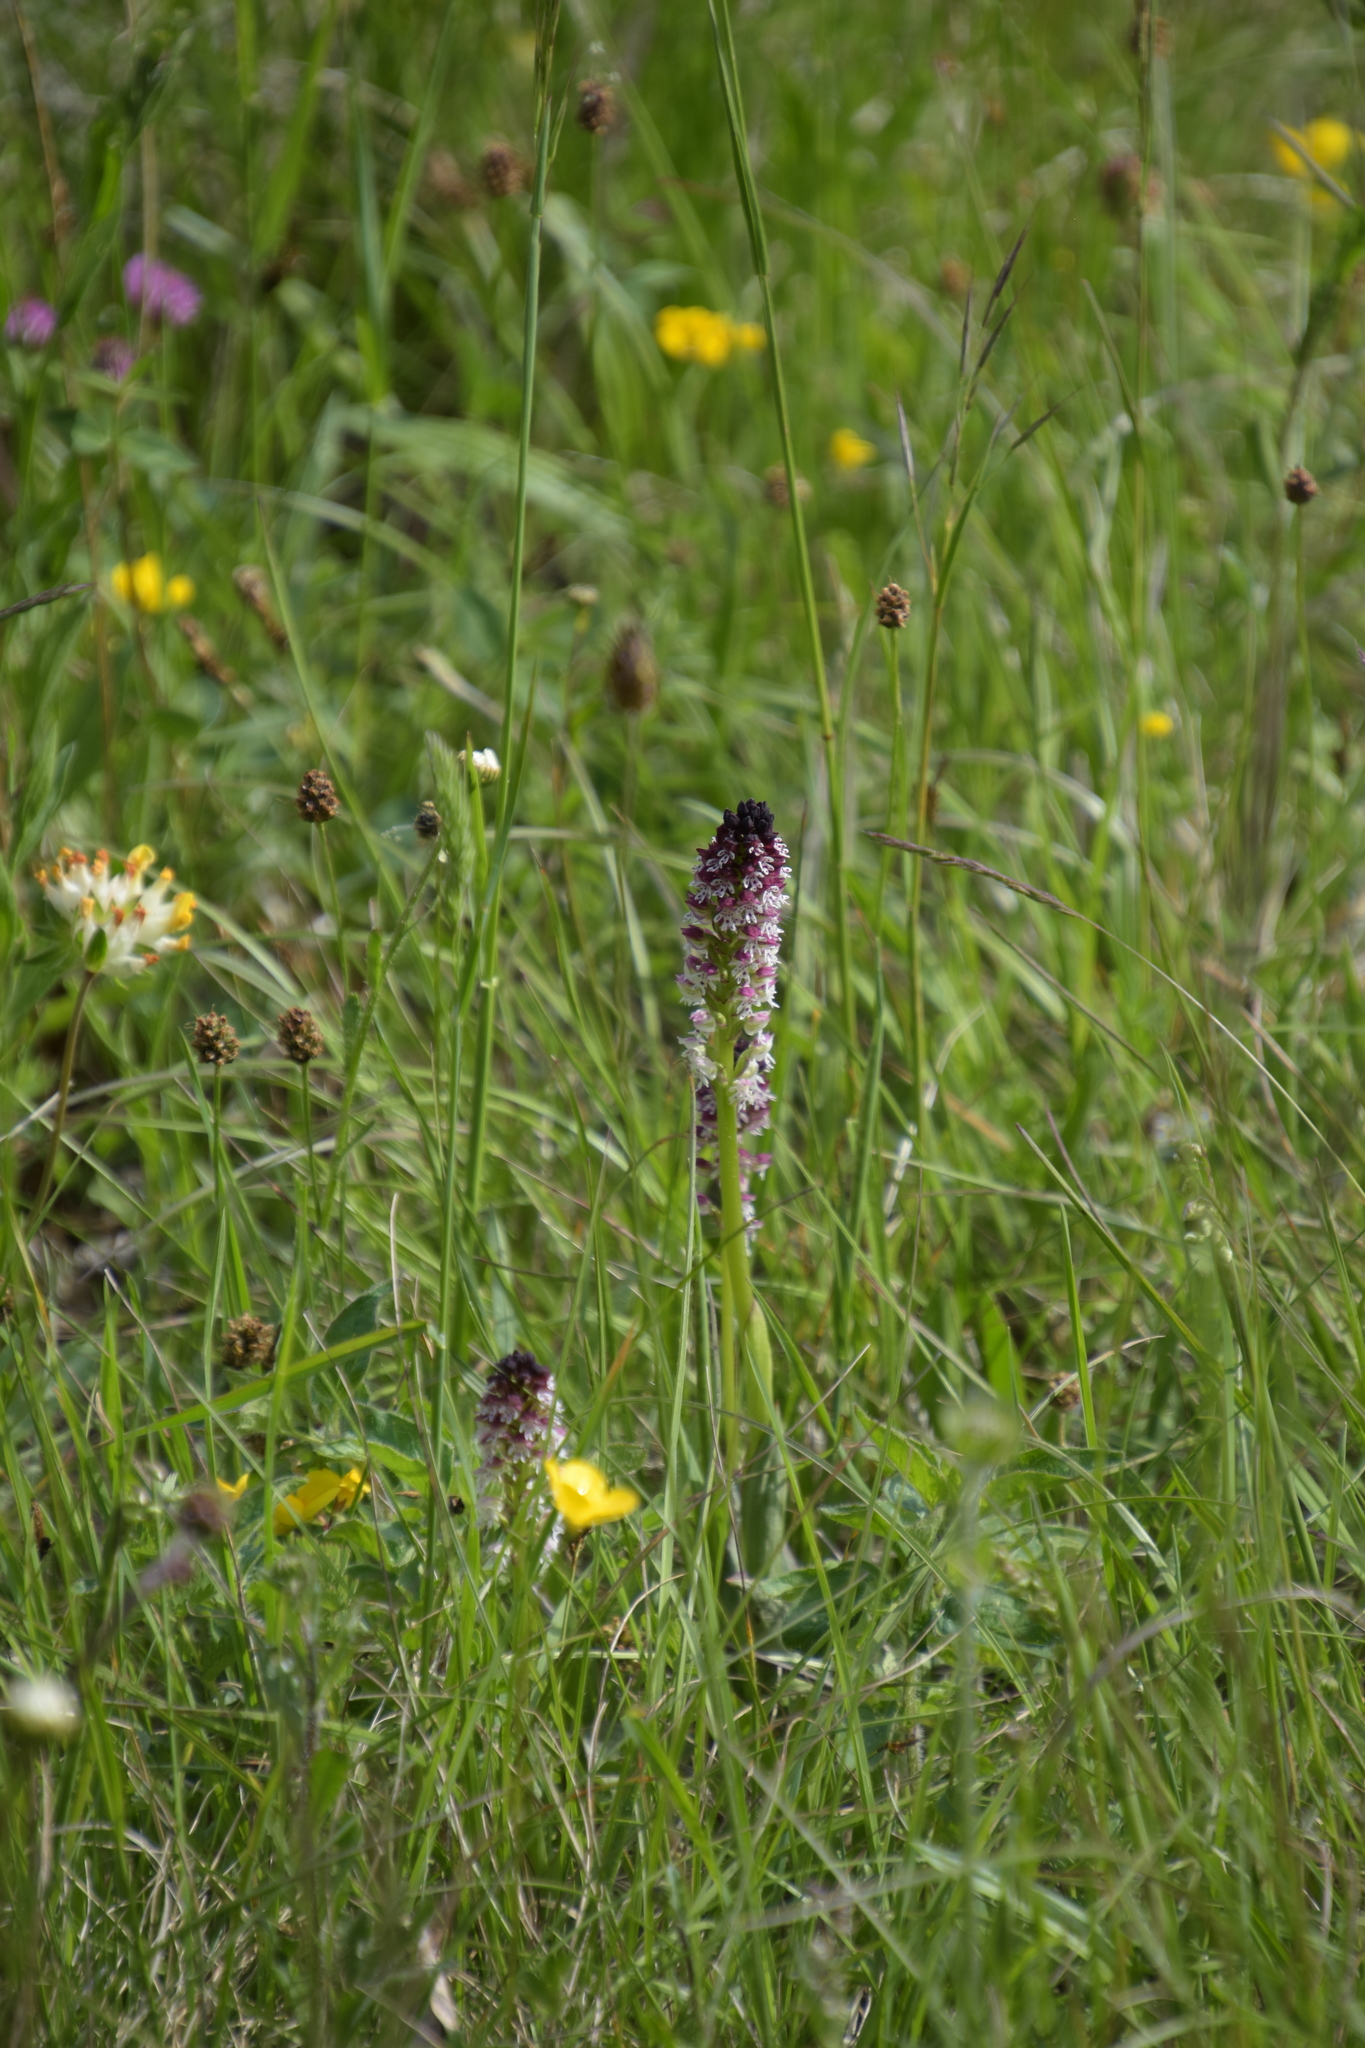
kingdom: Plantae
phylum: Tracheophyta
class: Liliopsida
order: Asparagales
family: Orchidaceae
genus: Neotinea
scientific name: Neotinea ustulata
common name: Burnt orchid
